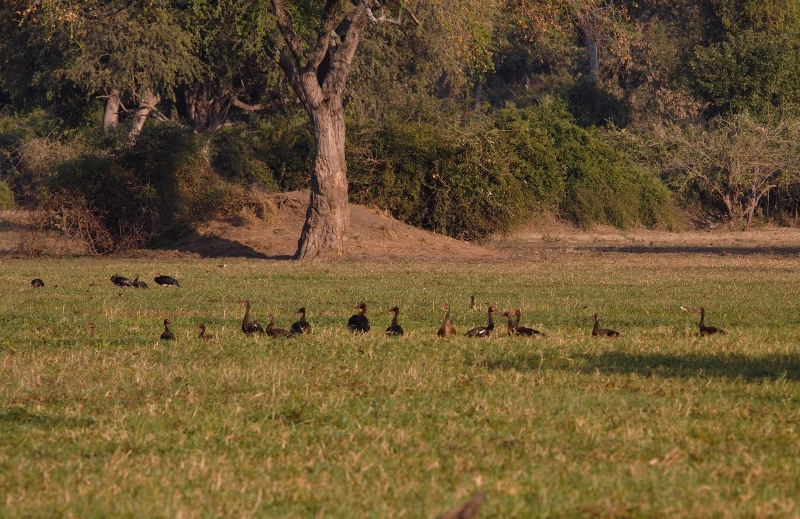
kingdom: Animalia
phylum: Chordata
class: Aves
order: Anseriformes
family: Anatidae
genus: Plectropterus
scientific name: Plectropterus gambensis
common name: Spur-winged goose
